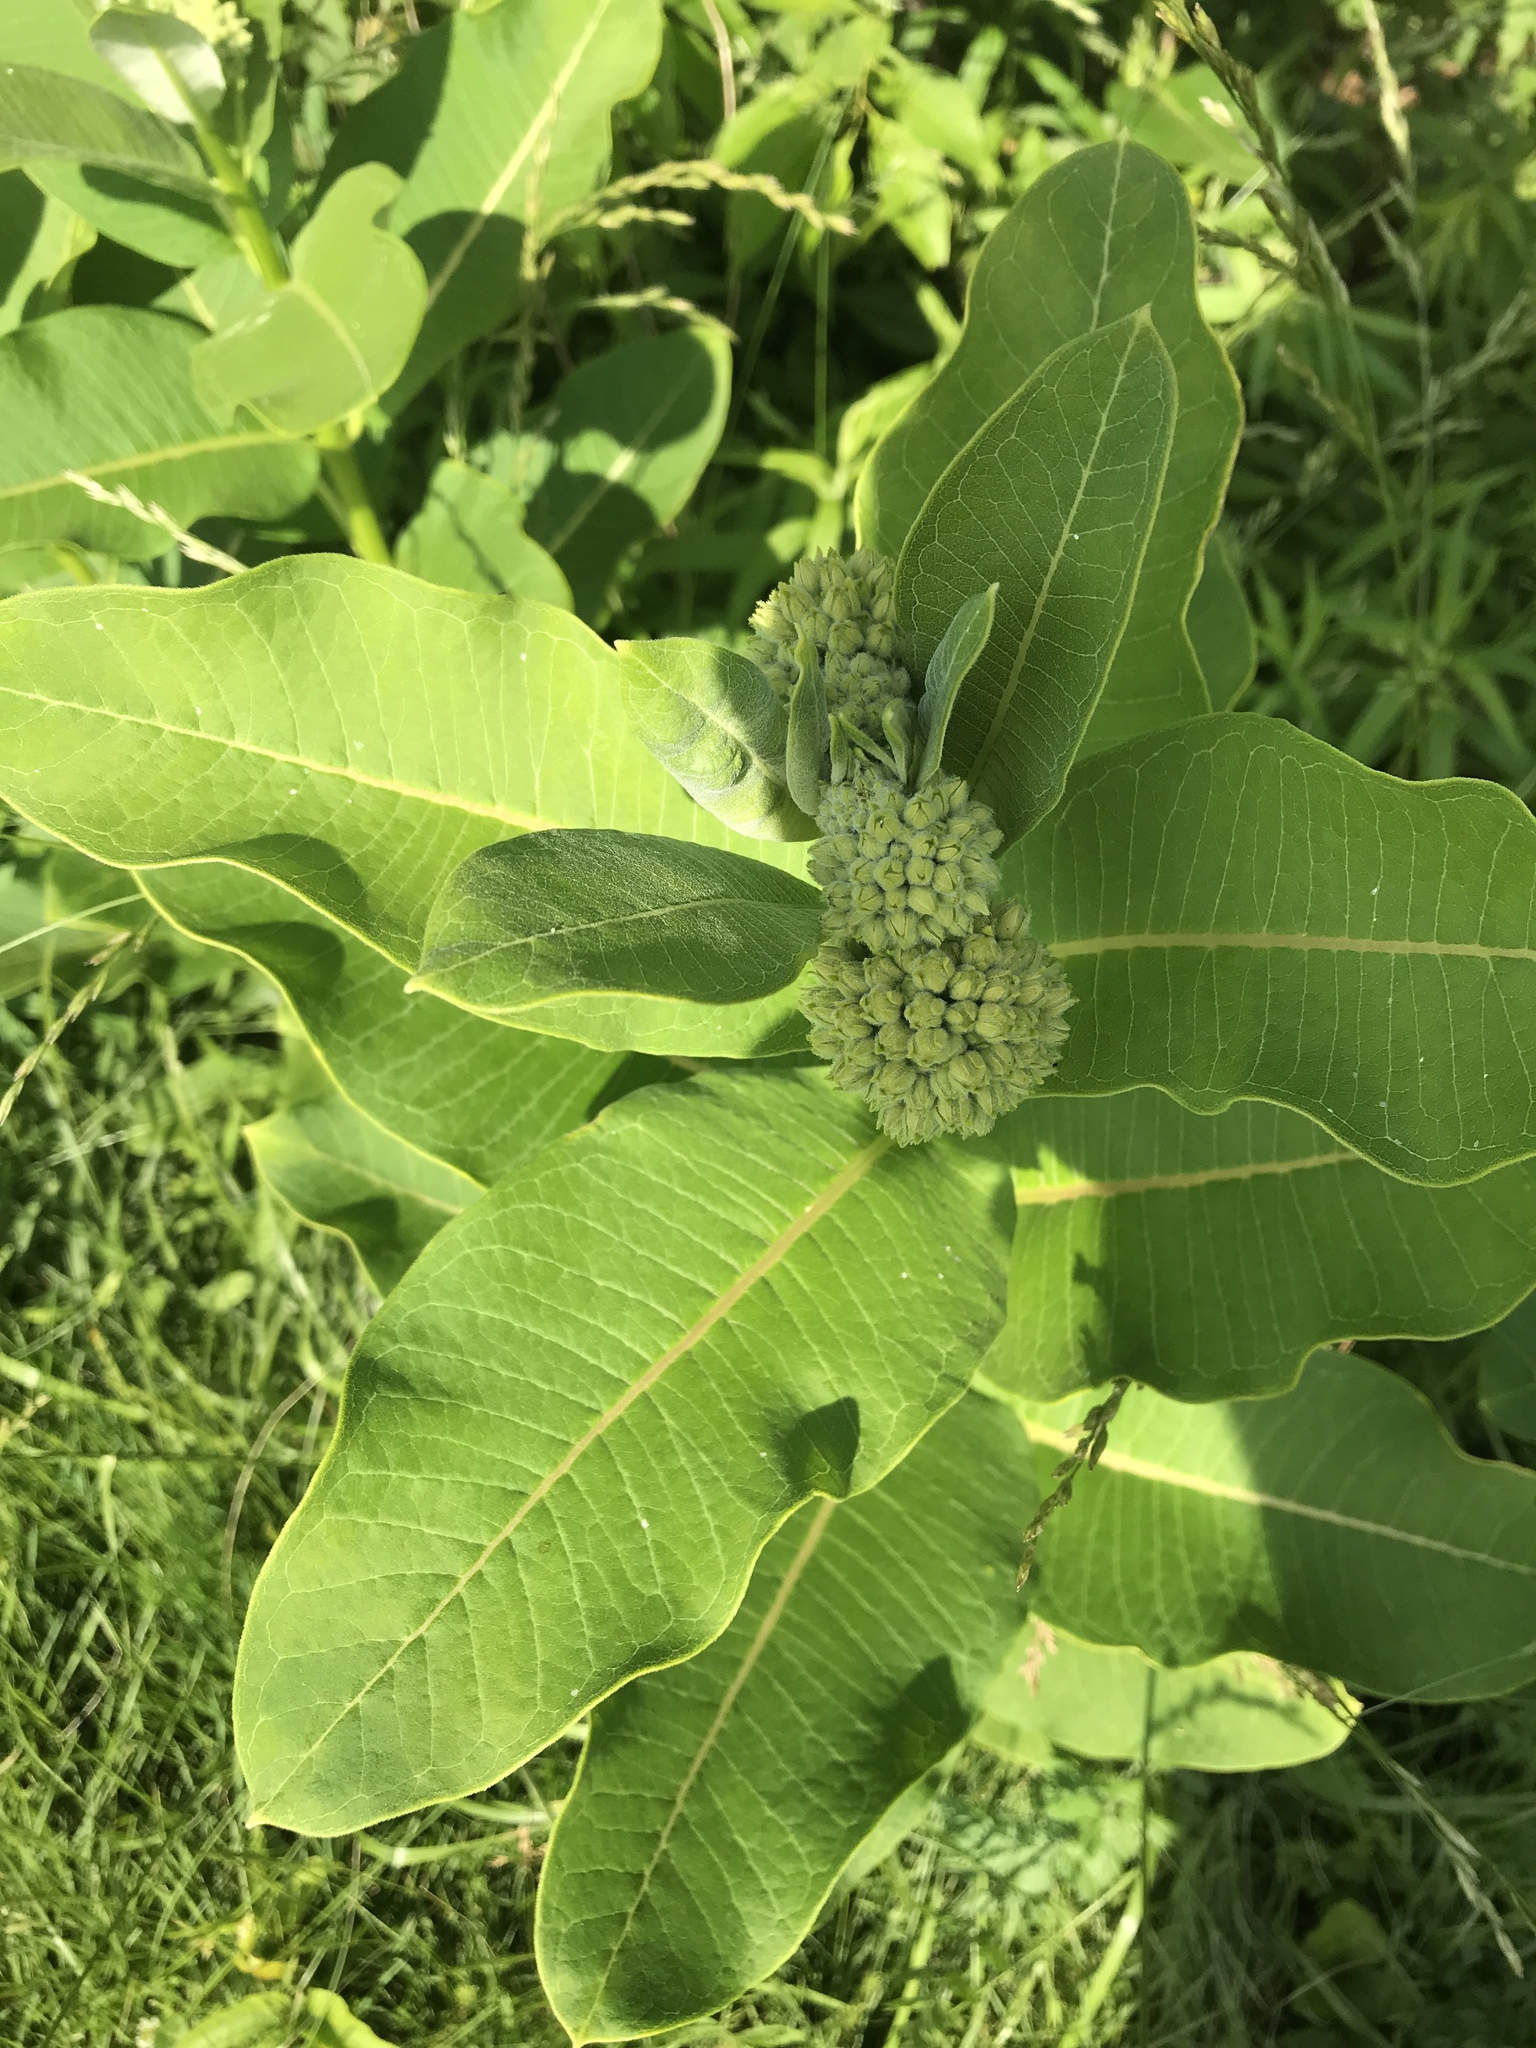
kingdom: Plantae
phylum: Tracheophyta
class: Magnoliopsida
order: Gentianales
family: Apocynaceae
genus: Asclepias
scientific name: Asclepias syriaca
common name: Common milkweed
